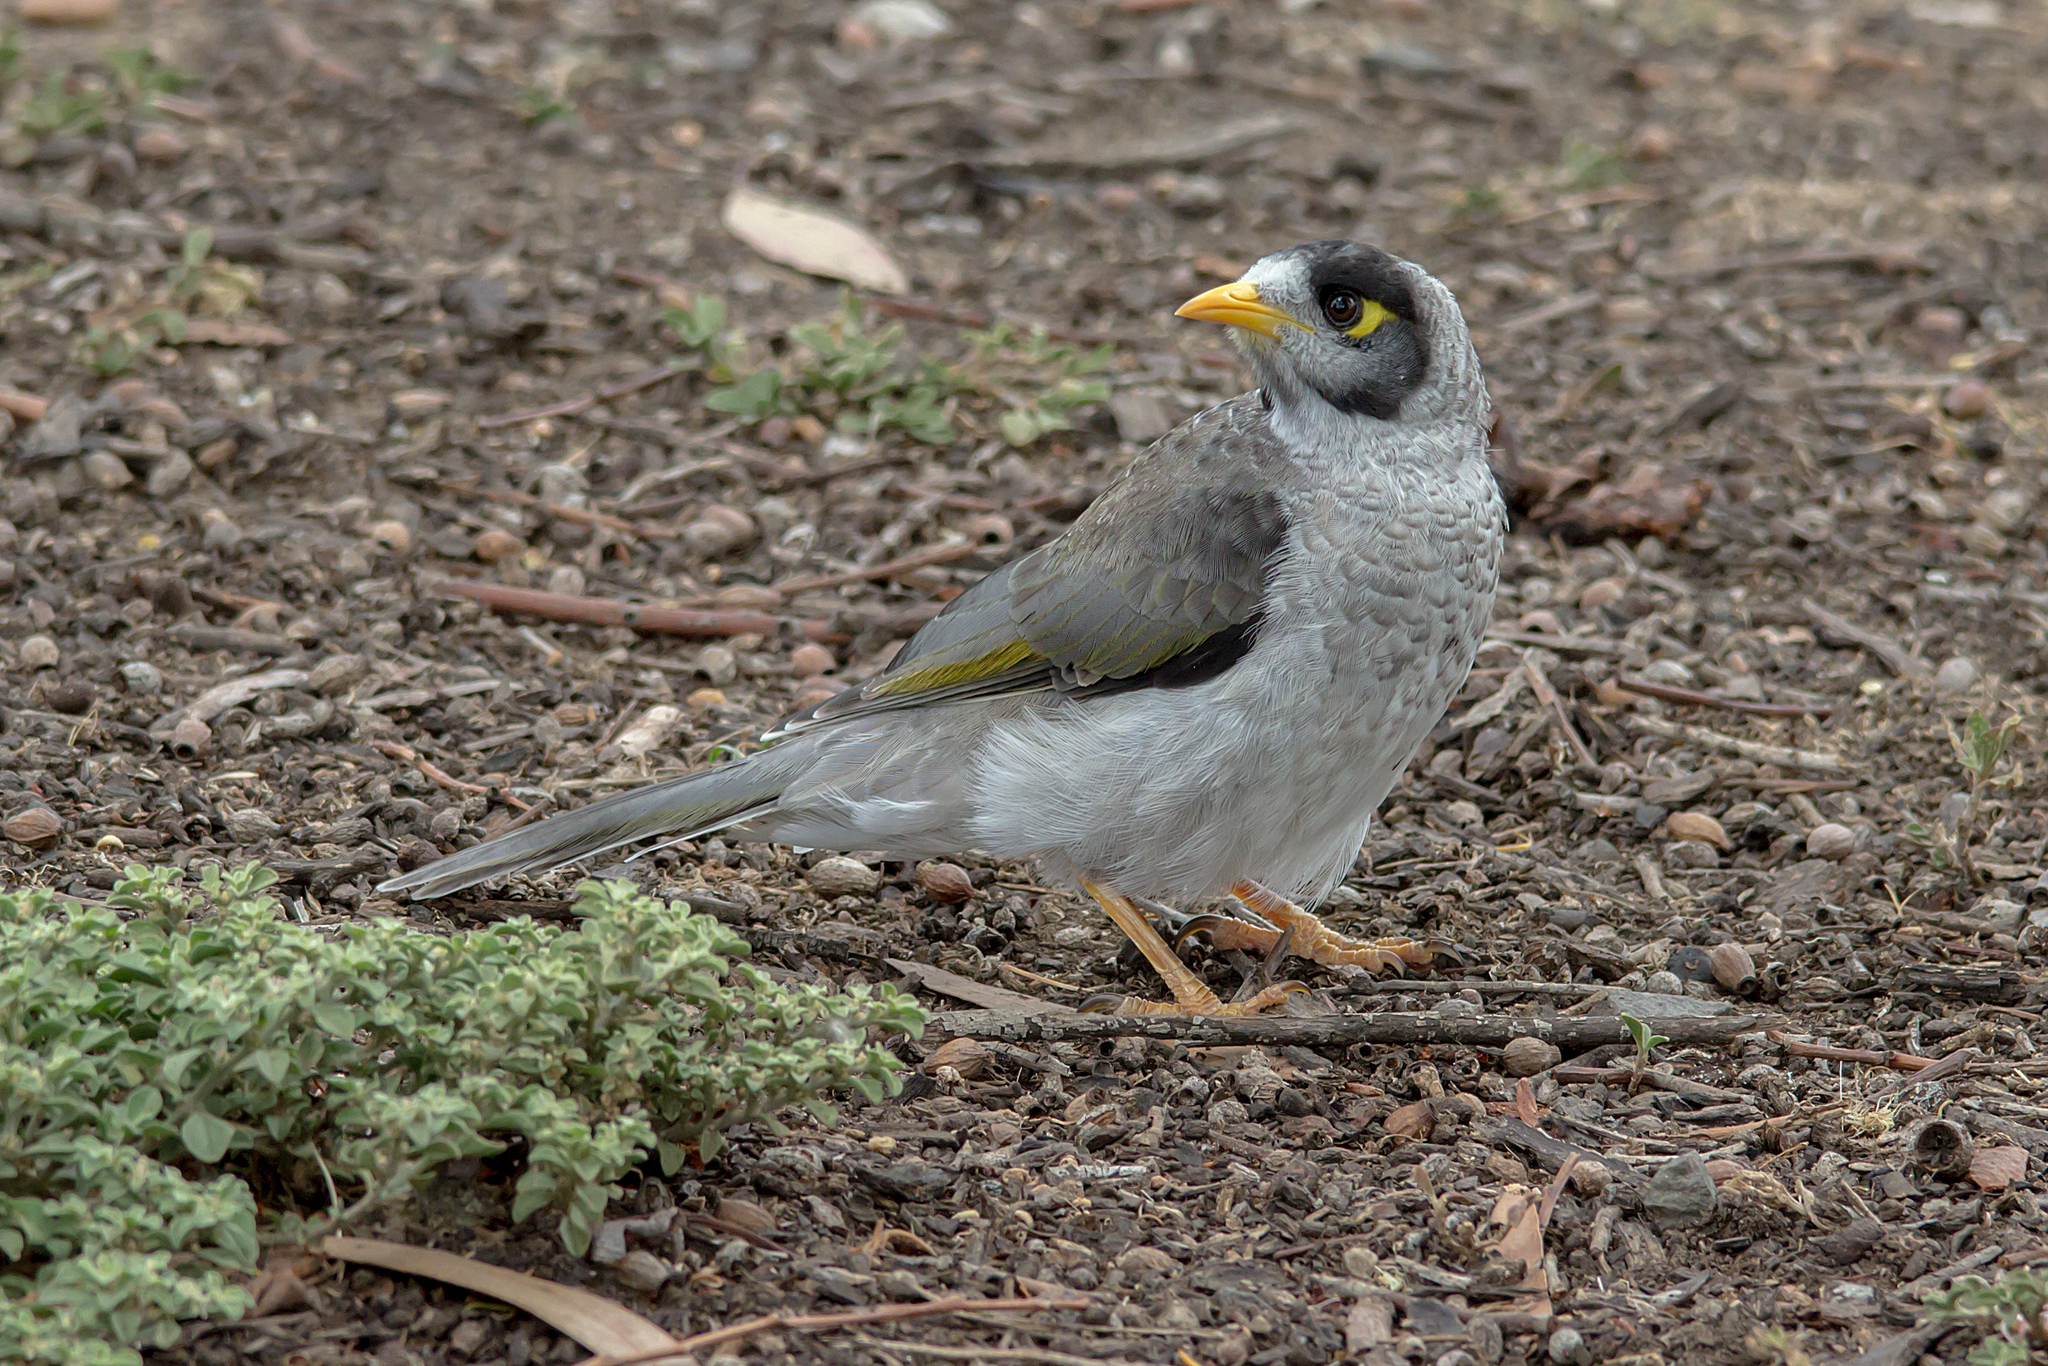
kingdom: Animalia
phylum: Chordata
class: Aves
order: Passeriformes
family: Meliphagidae
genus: Manorina
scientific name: Manorina melanocephala
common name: Noisy miner
